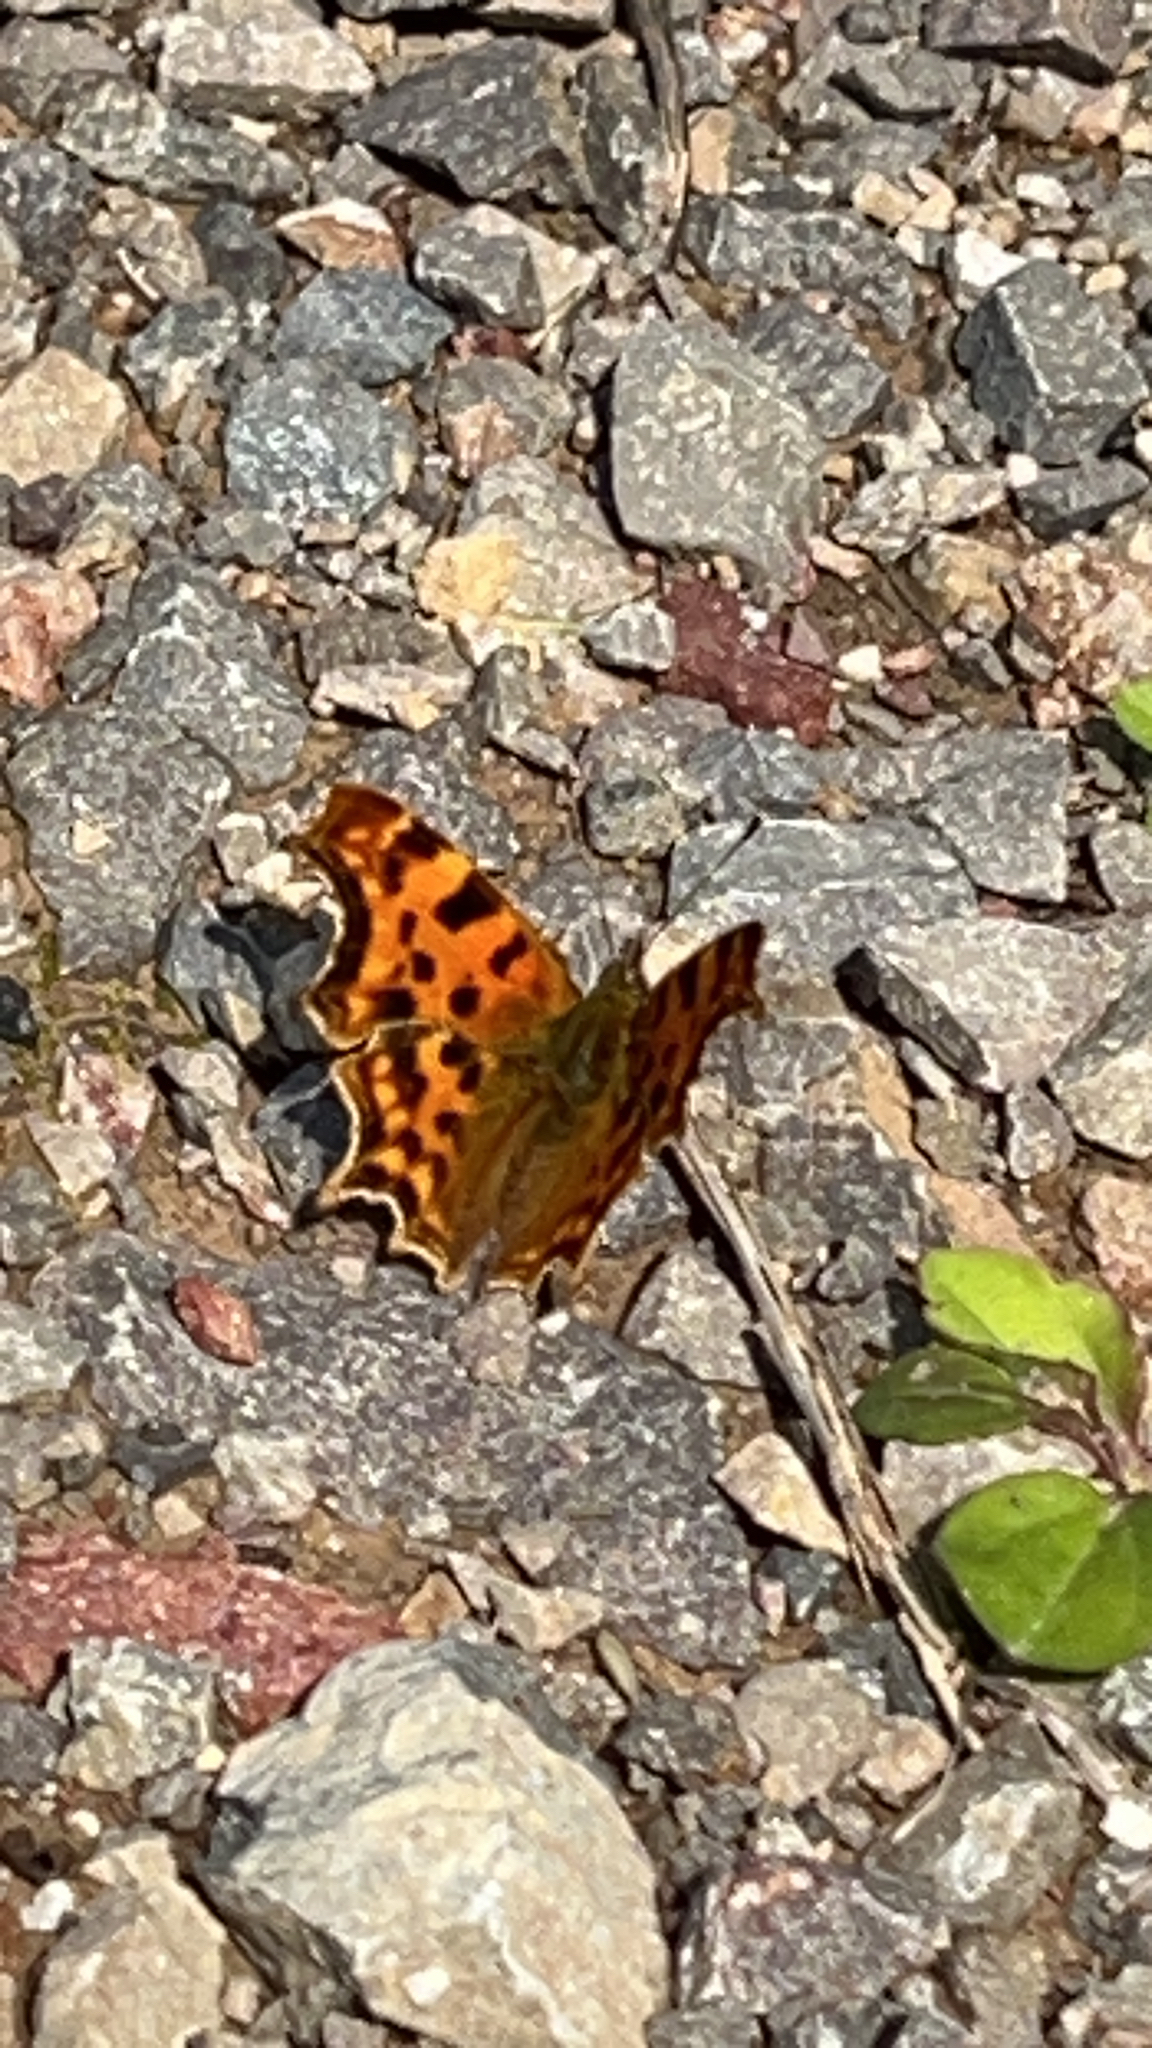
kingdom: Animalia
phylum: Arthropoda
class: Insecta
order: Lepidoptera
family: Nymphalidae
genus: Polygonia
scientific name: Polygonia c-album
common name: Comma
